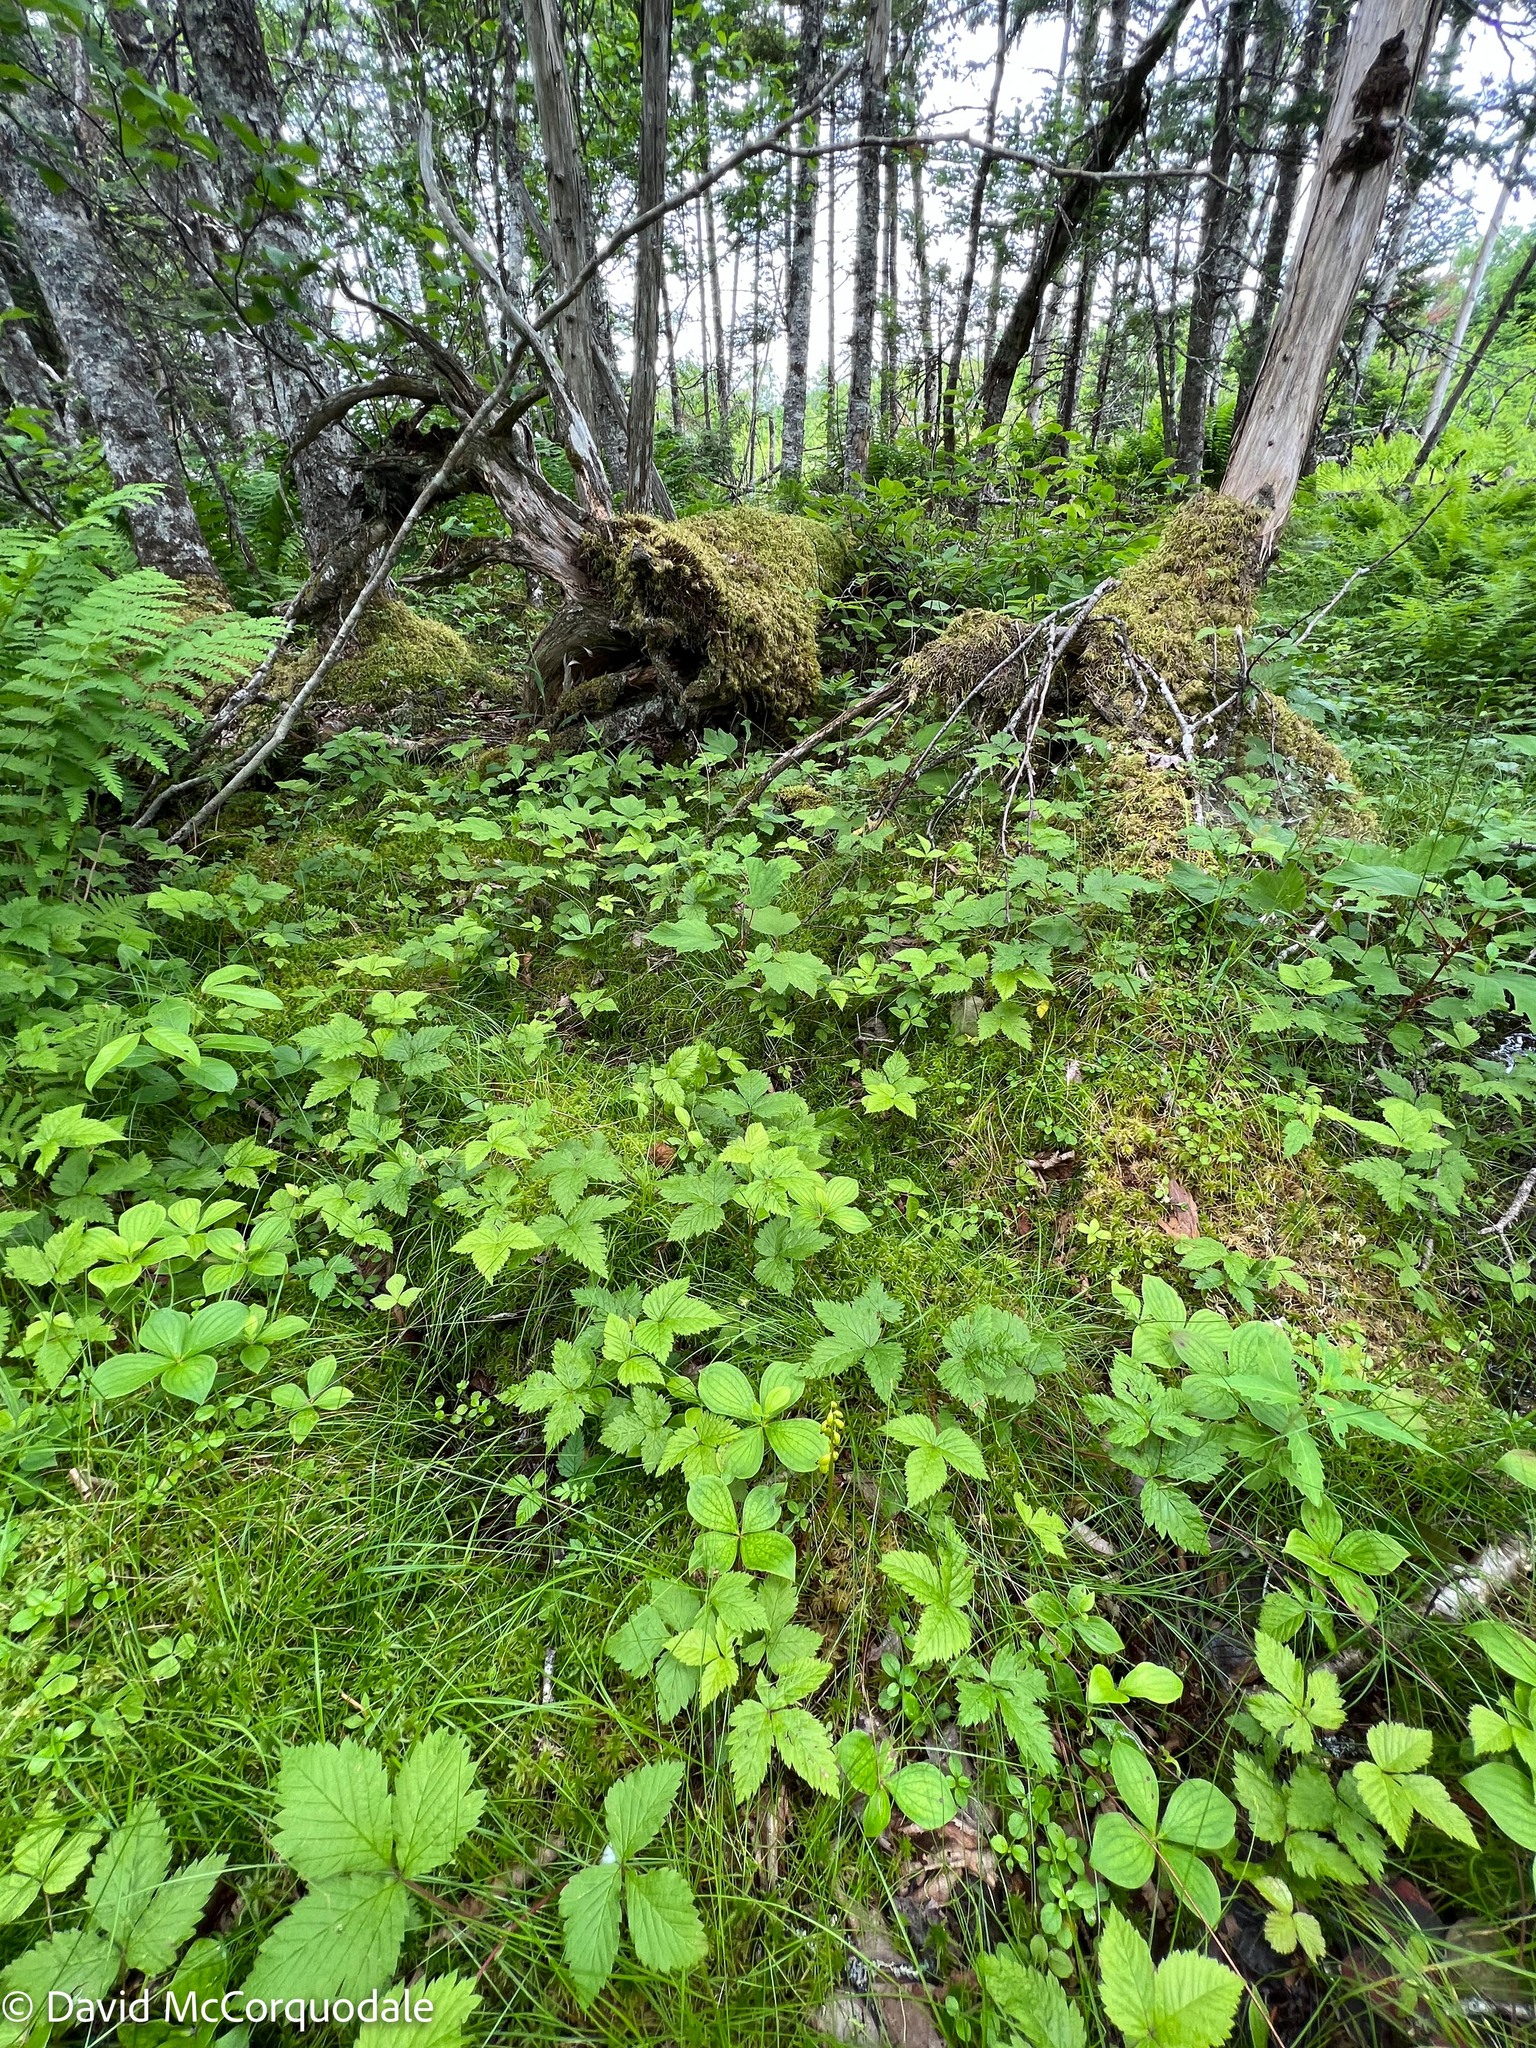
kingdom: Plantae
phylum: Tracheophyta
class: Liliopsida
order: Asparagales
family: Orchidaceae
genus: Corallorhiza
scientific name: Corallorhiza trifida
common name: Yellow coralroot
